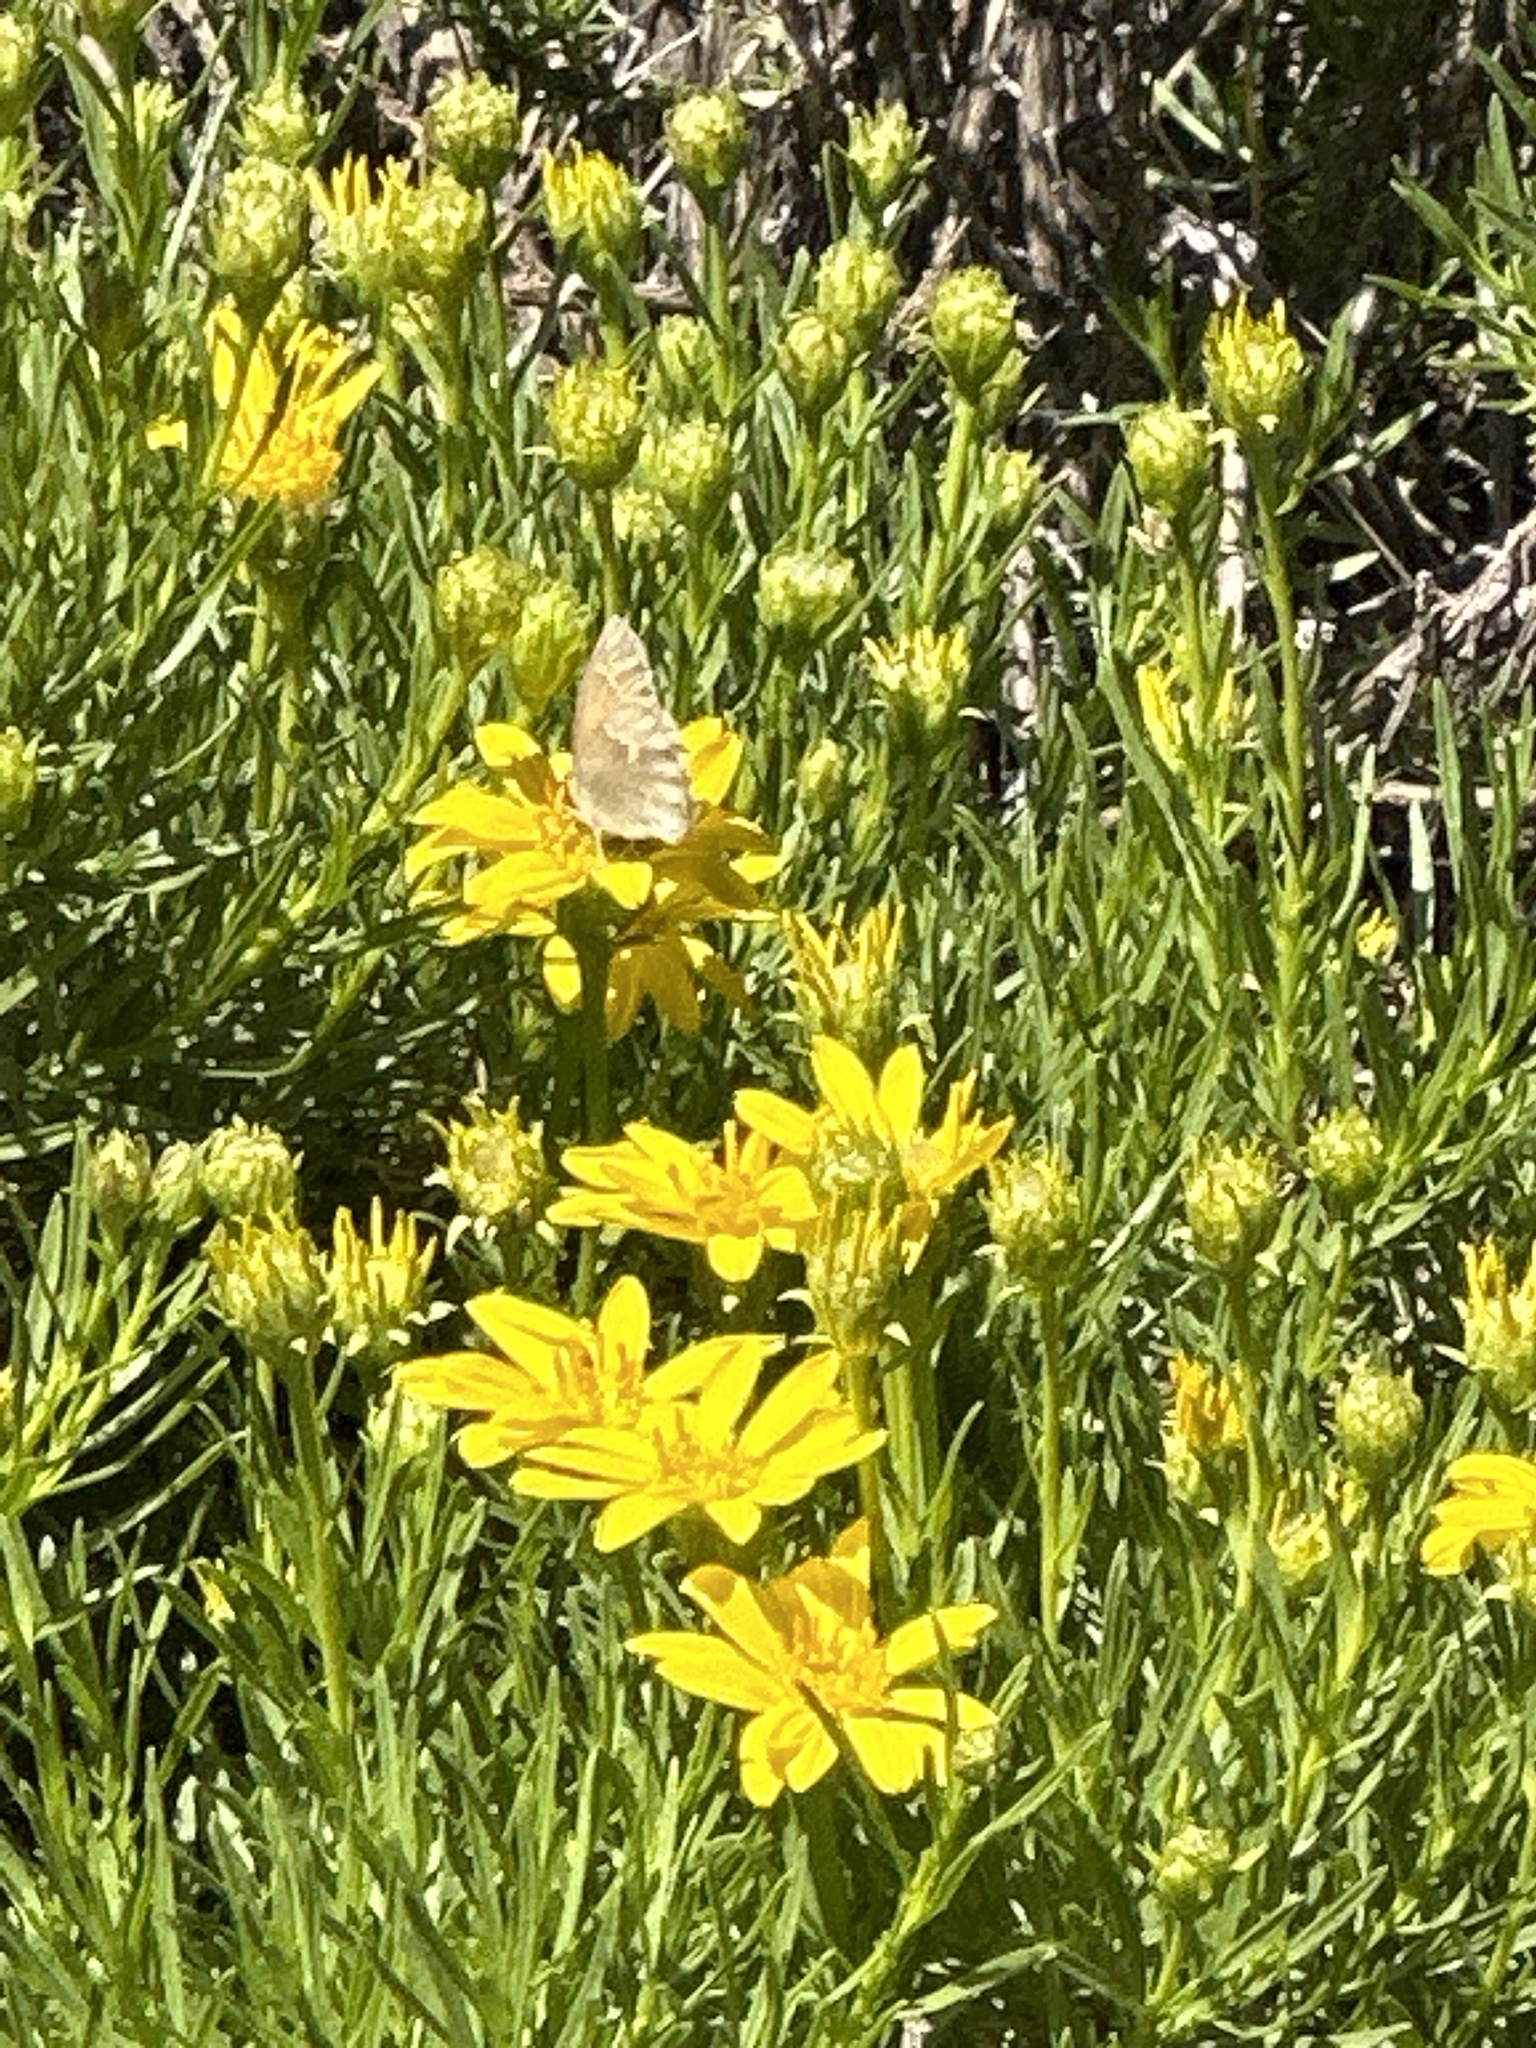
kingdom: Animalia
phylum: Arthropoda
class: Insecta
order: Lepidoptera
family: Nymphalidae
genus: Coenonympha
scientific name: Coenonympha california
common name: Common ringlet
